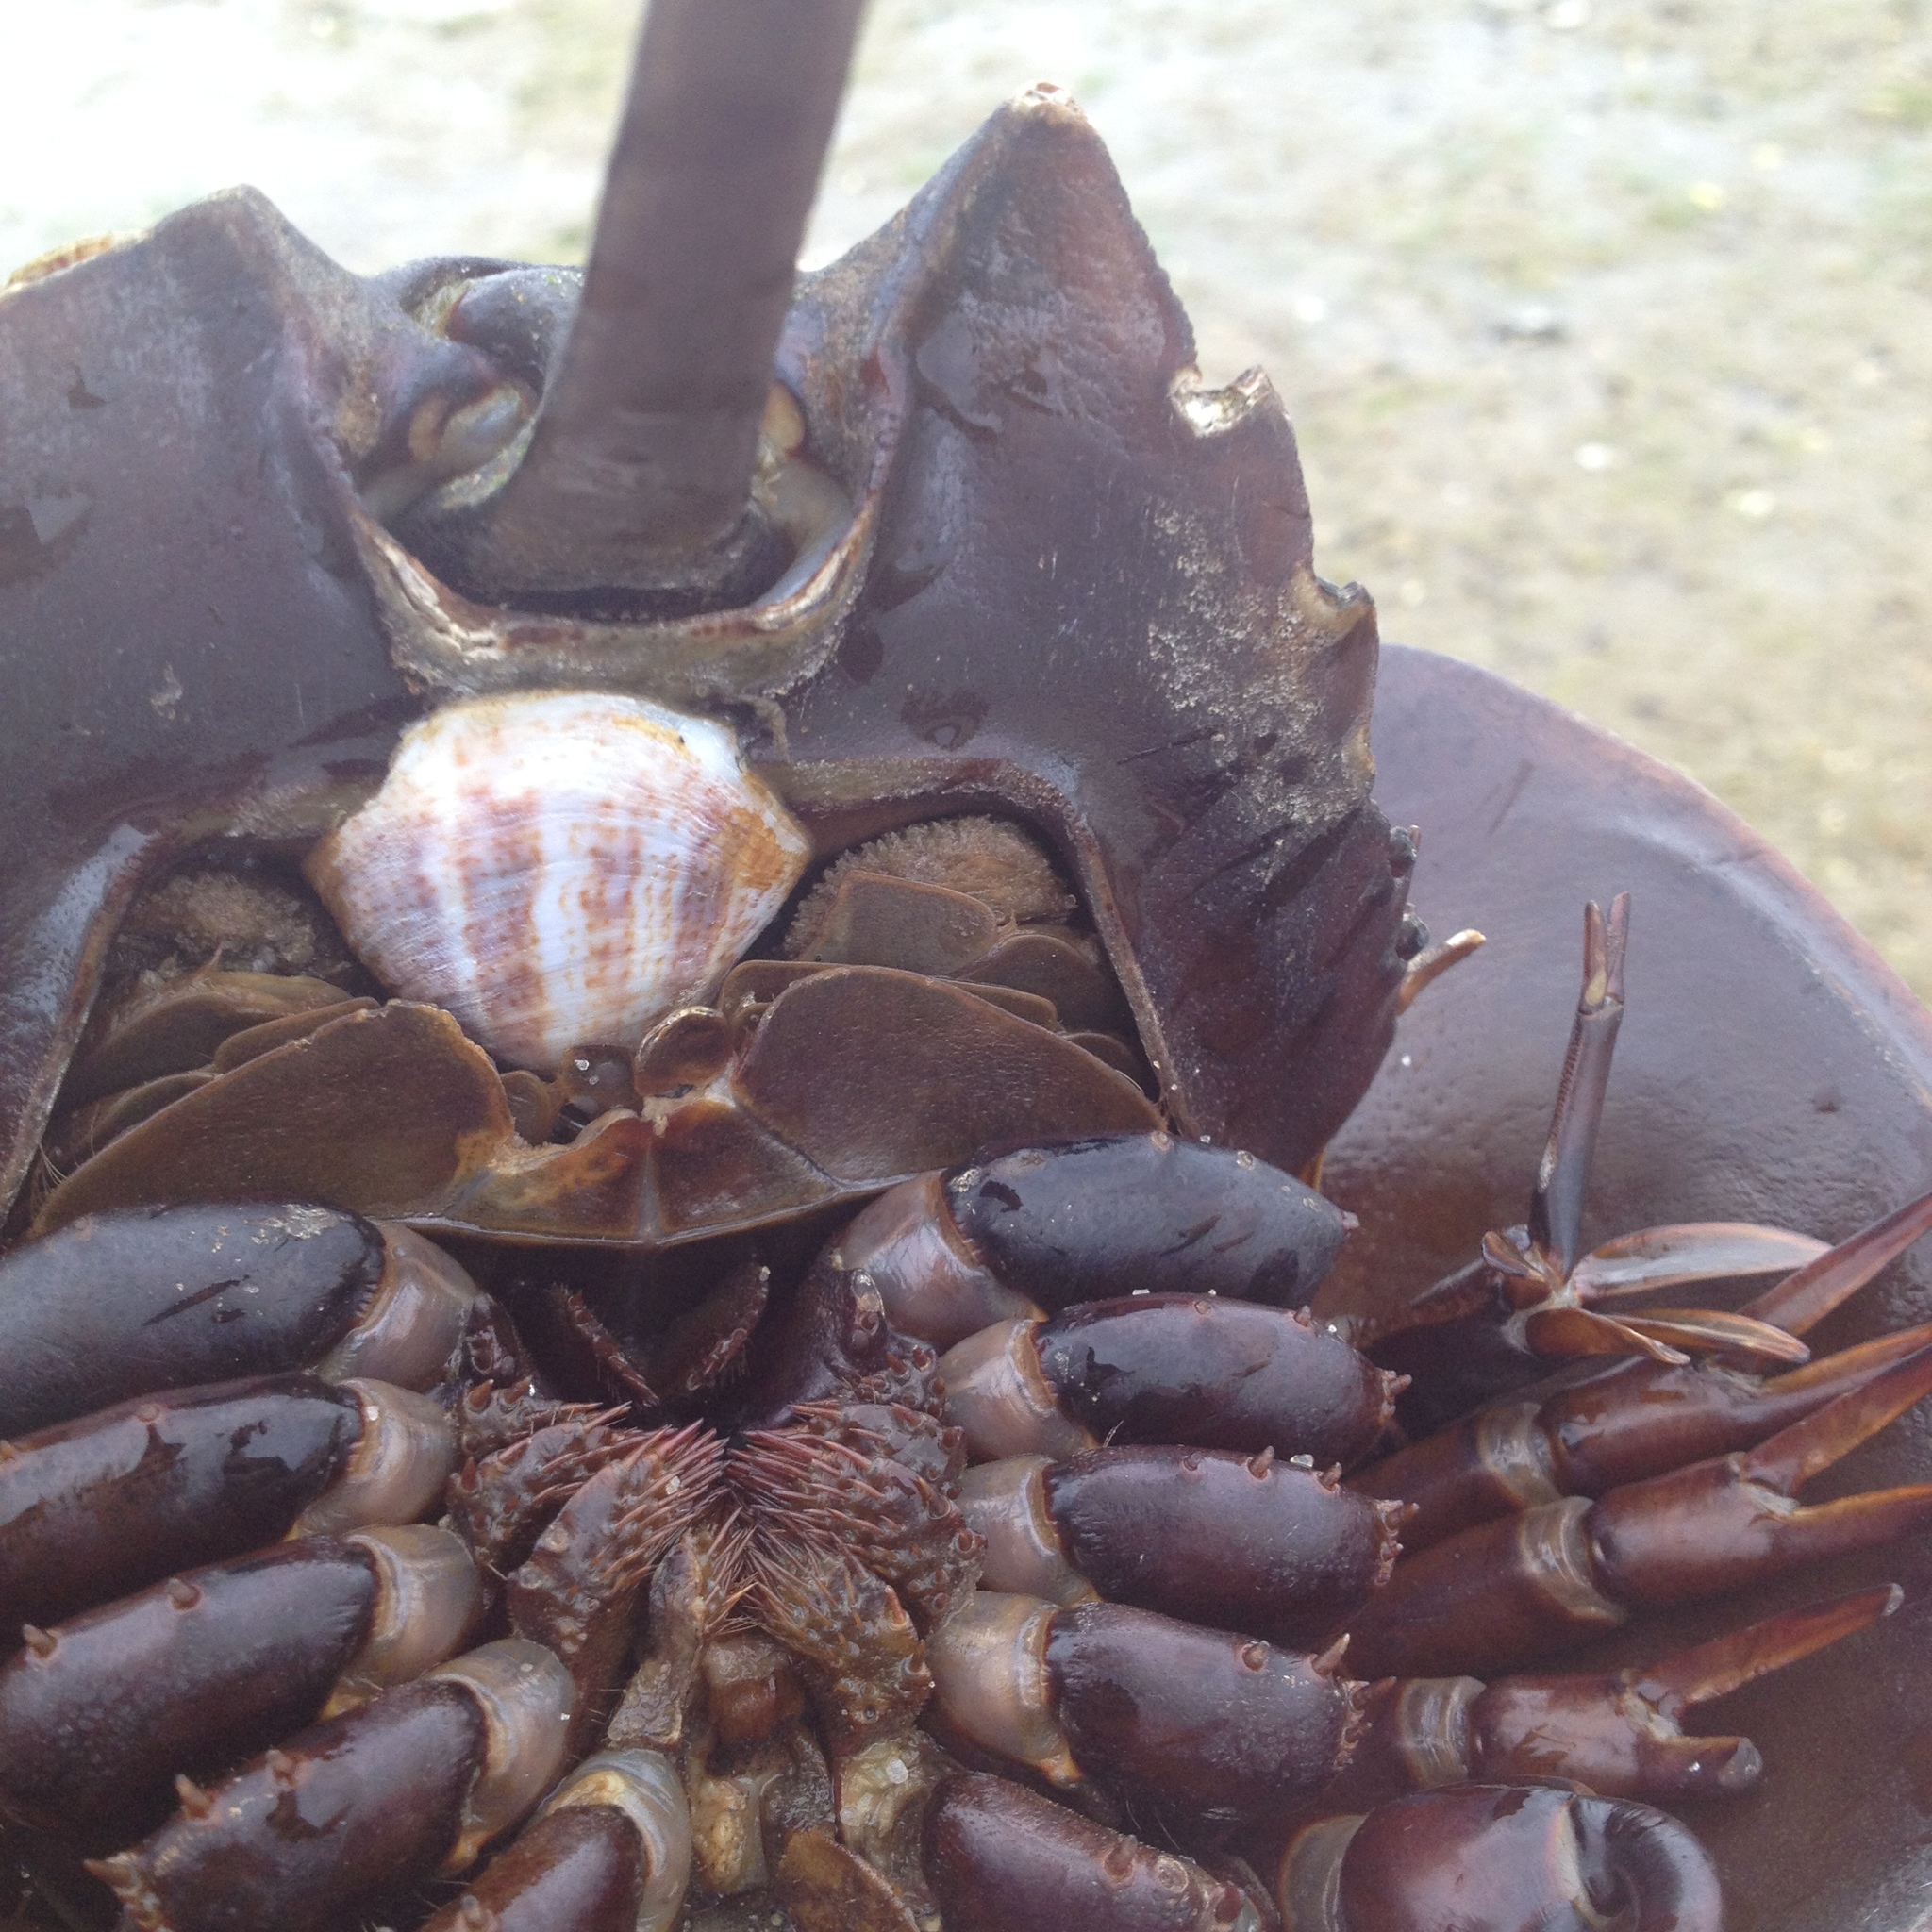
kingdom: Animalia
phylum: Mollusca
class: Gastropoda
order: Littorinimorpha
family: Calyptraeidae
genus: Crepidula
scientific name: Crepidula fornicata
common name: Slipper limpet
